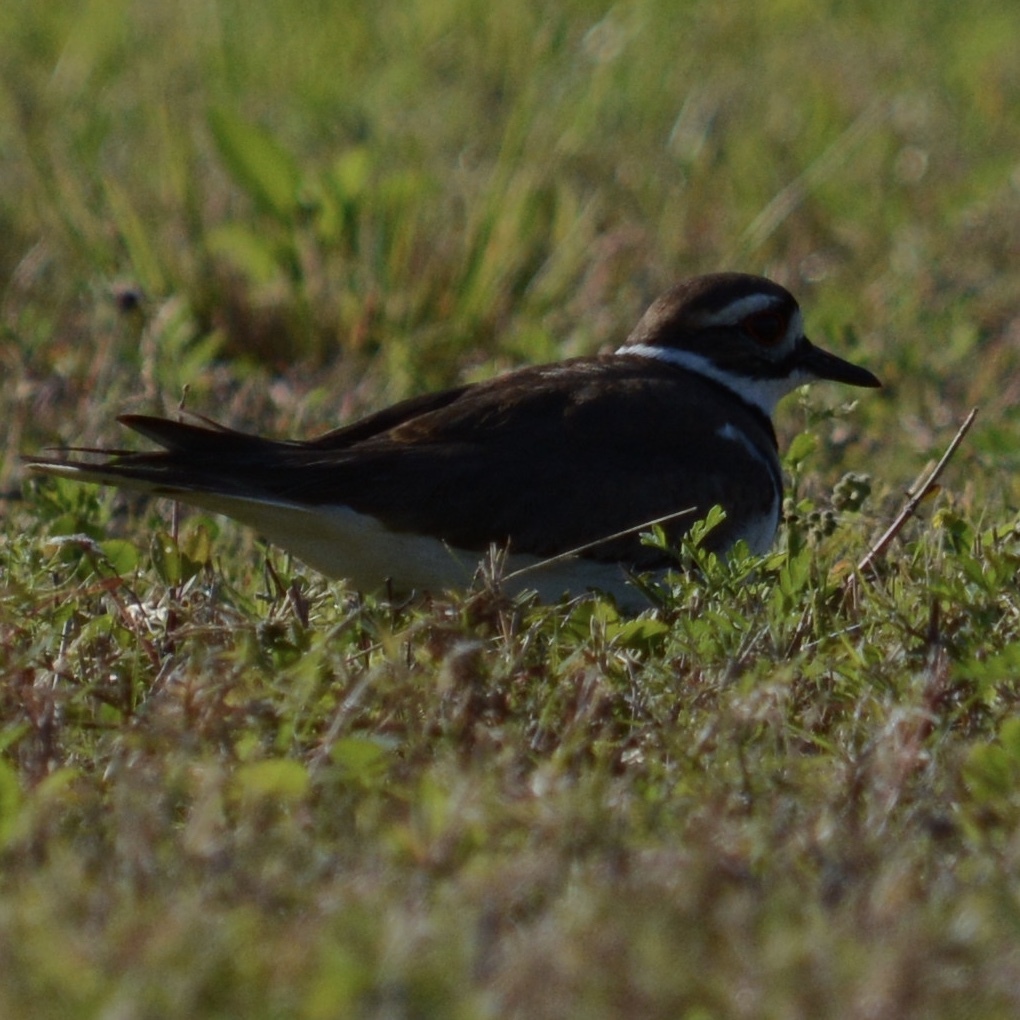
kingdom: Animalia
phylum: Chordata
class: Aves
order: Charadriiformes
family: Charadriidae
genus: Charadrius
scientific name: Charadrius vociferus
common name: Killdeer
